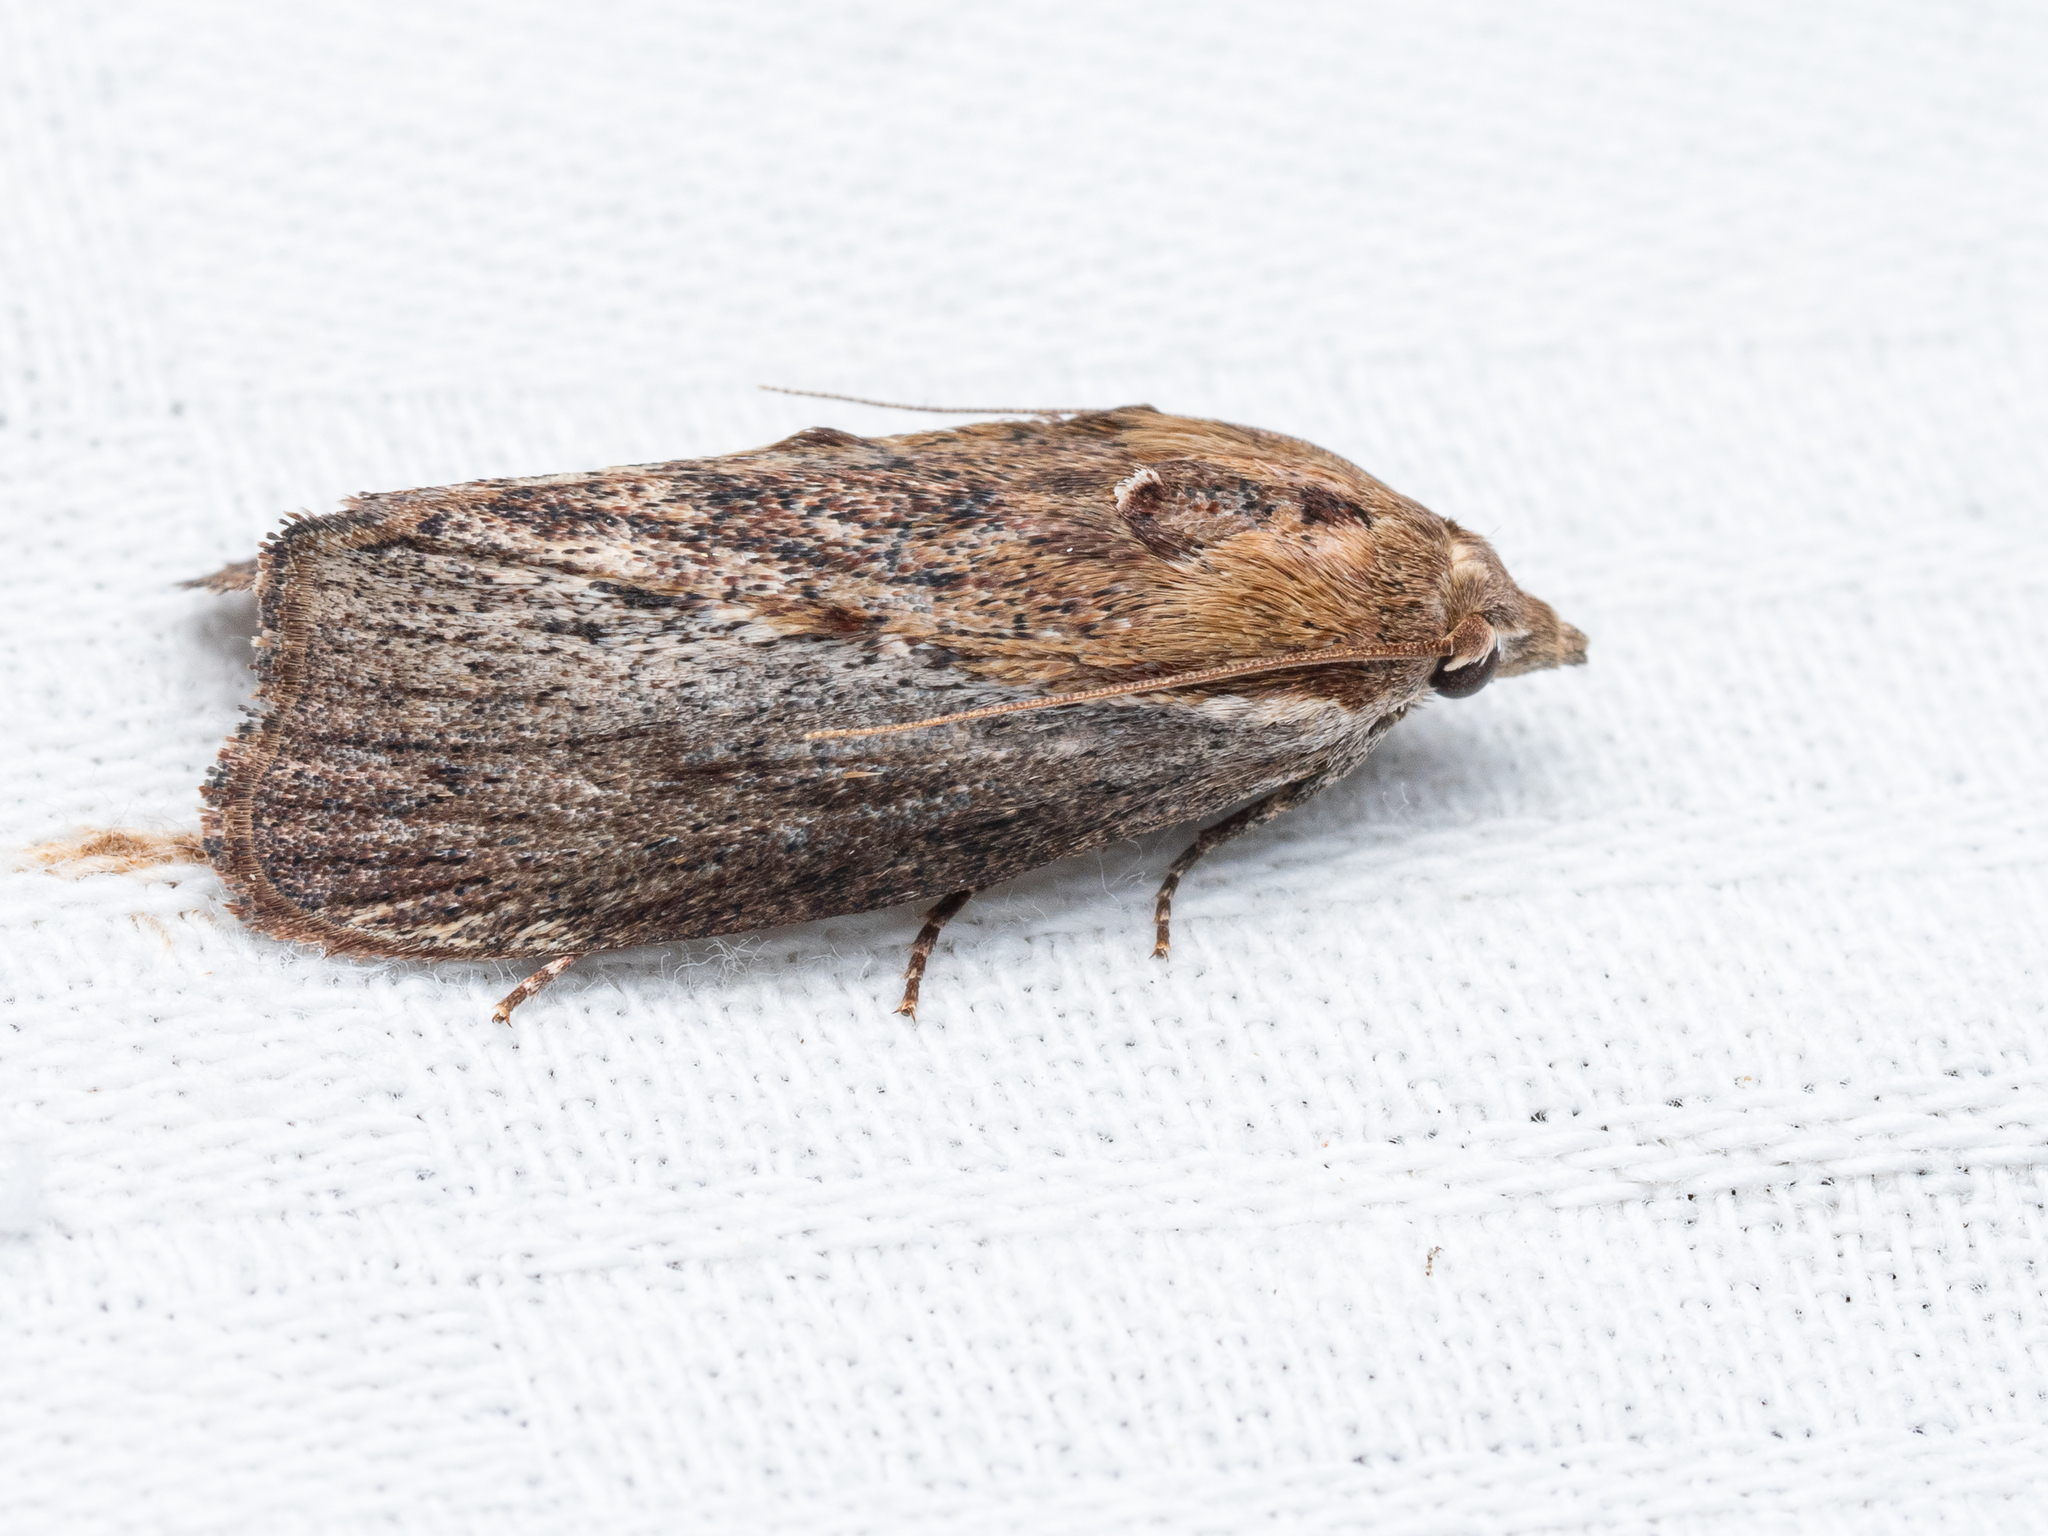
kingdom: Animalia
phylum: Arthropoda
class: Insecta
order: Lepidoptera
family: Pyralidae
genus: Galleria
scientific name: Galleria mellonella
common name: Greater wax moth
